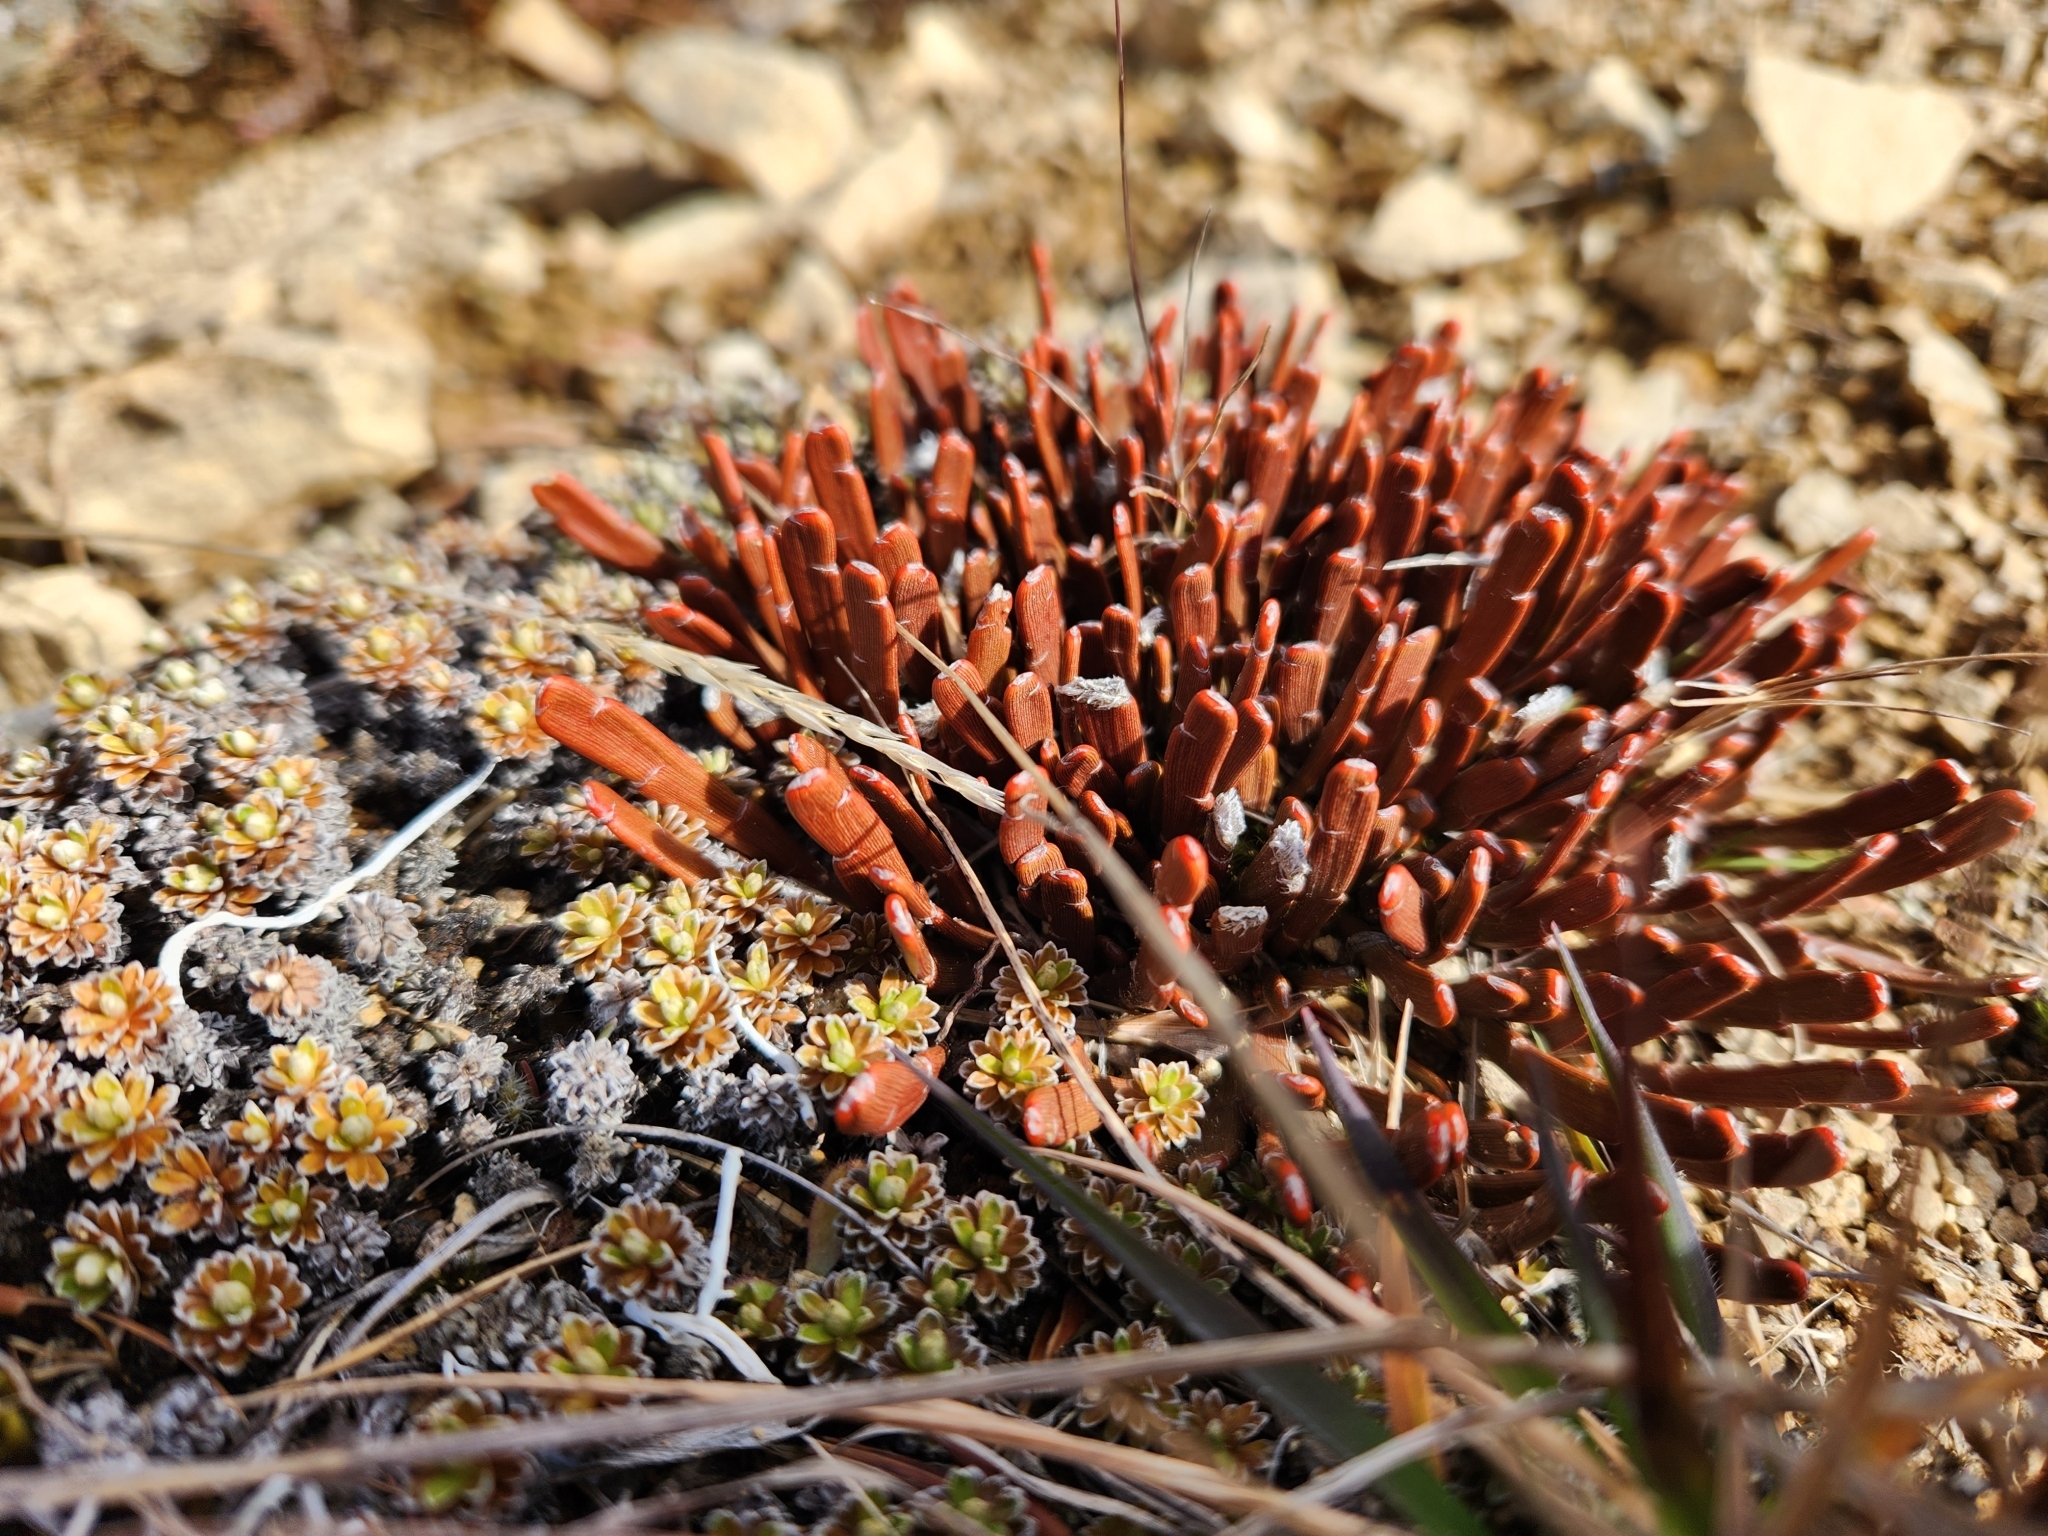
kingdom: Plantae
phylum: Tracheophyta
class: Magnoliopsida
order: Fabales
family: Fabaceae
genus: Carmichaelia
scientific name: Carmichaelia monroi
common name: Stout dwarf broom
